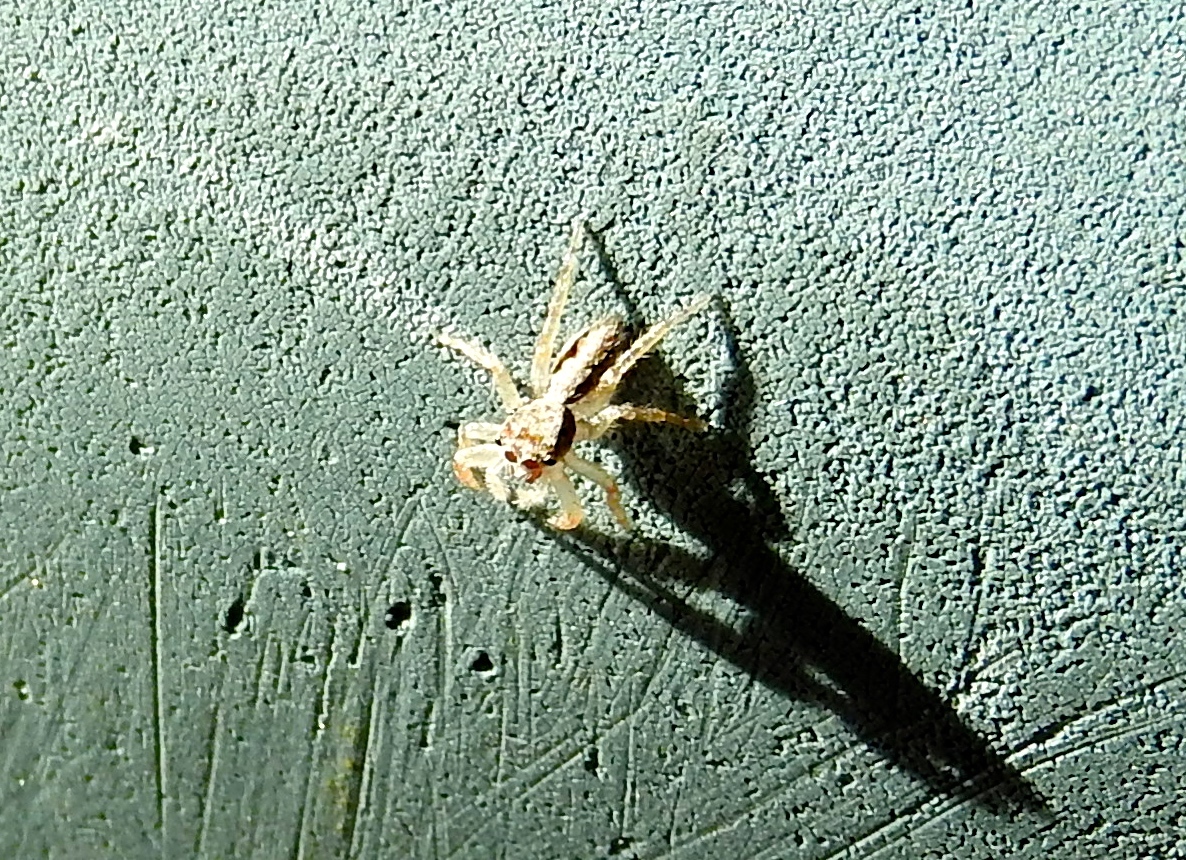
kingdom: Animalia
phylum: Arthropoda
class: Arachnida
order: Araneae
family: Salticidae
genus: Balmaceda
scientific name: Balmaceda
